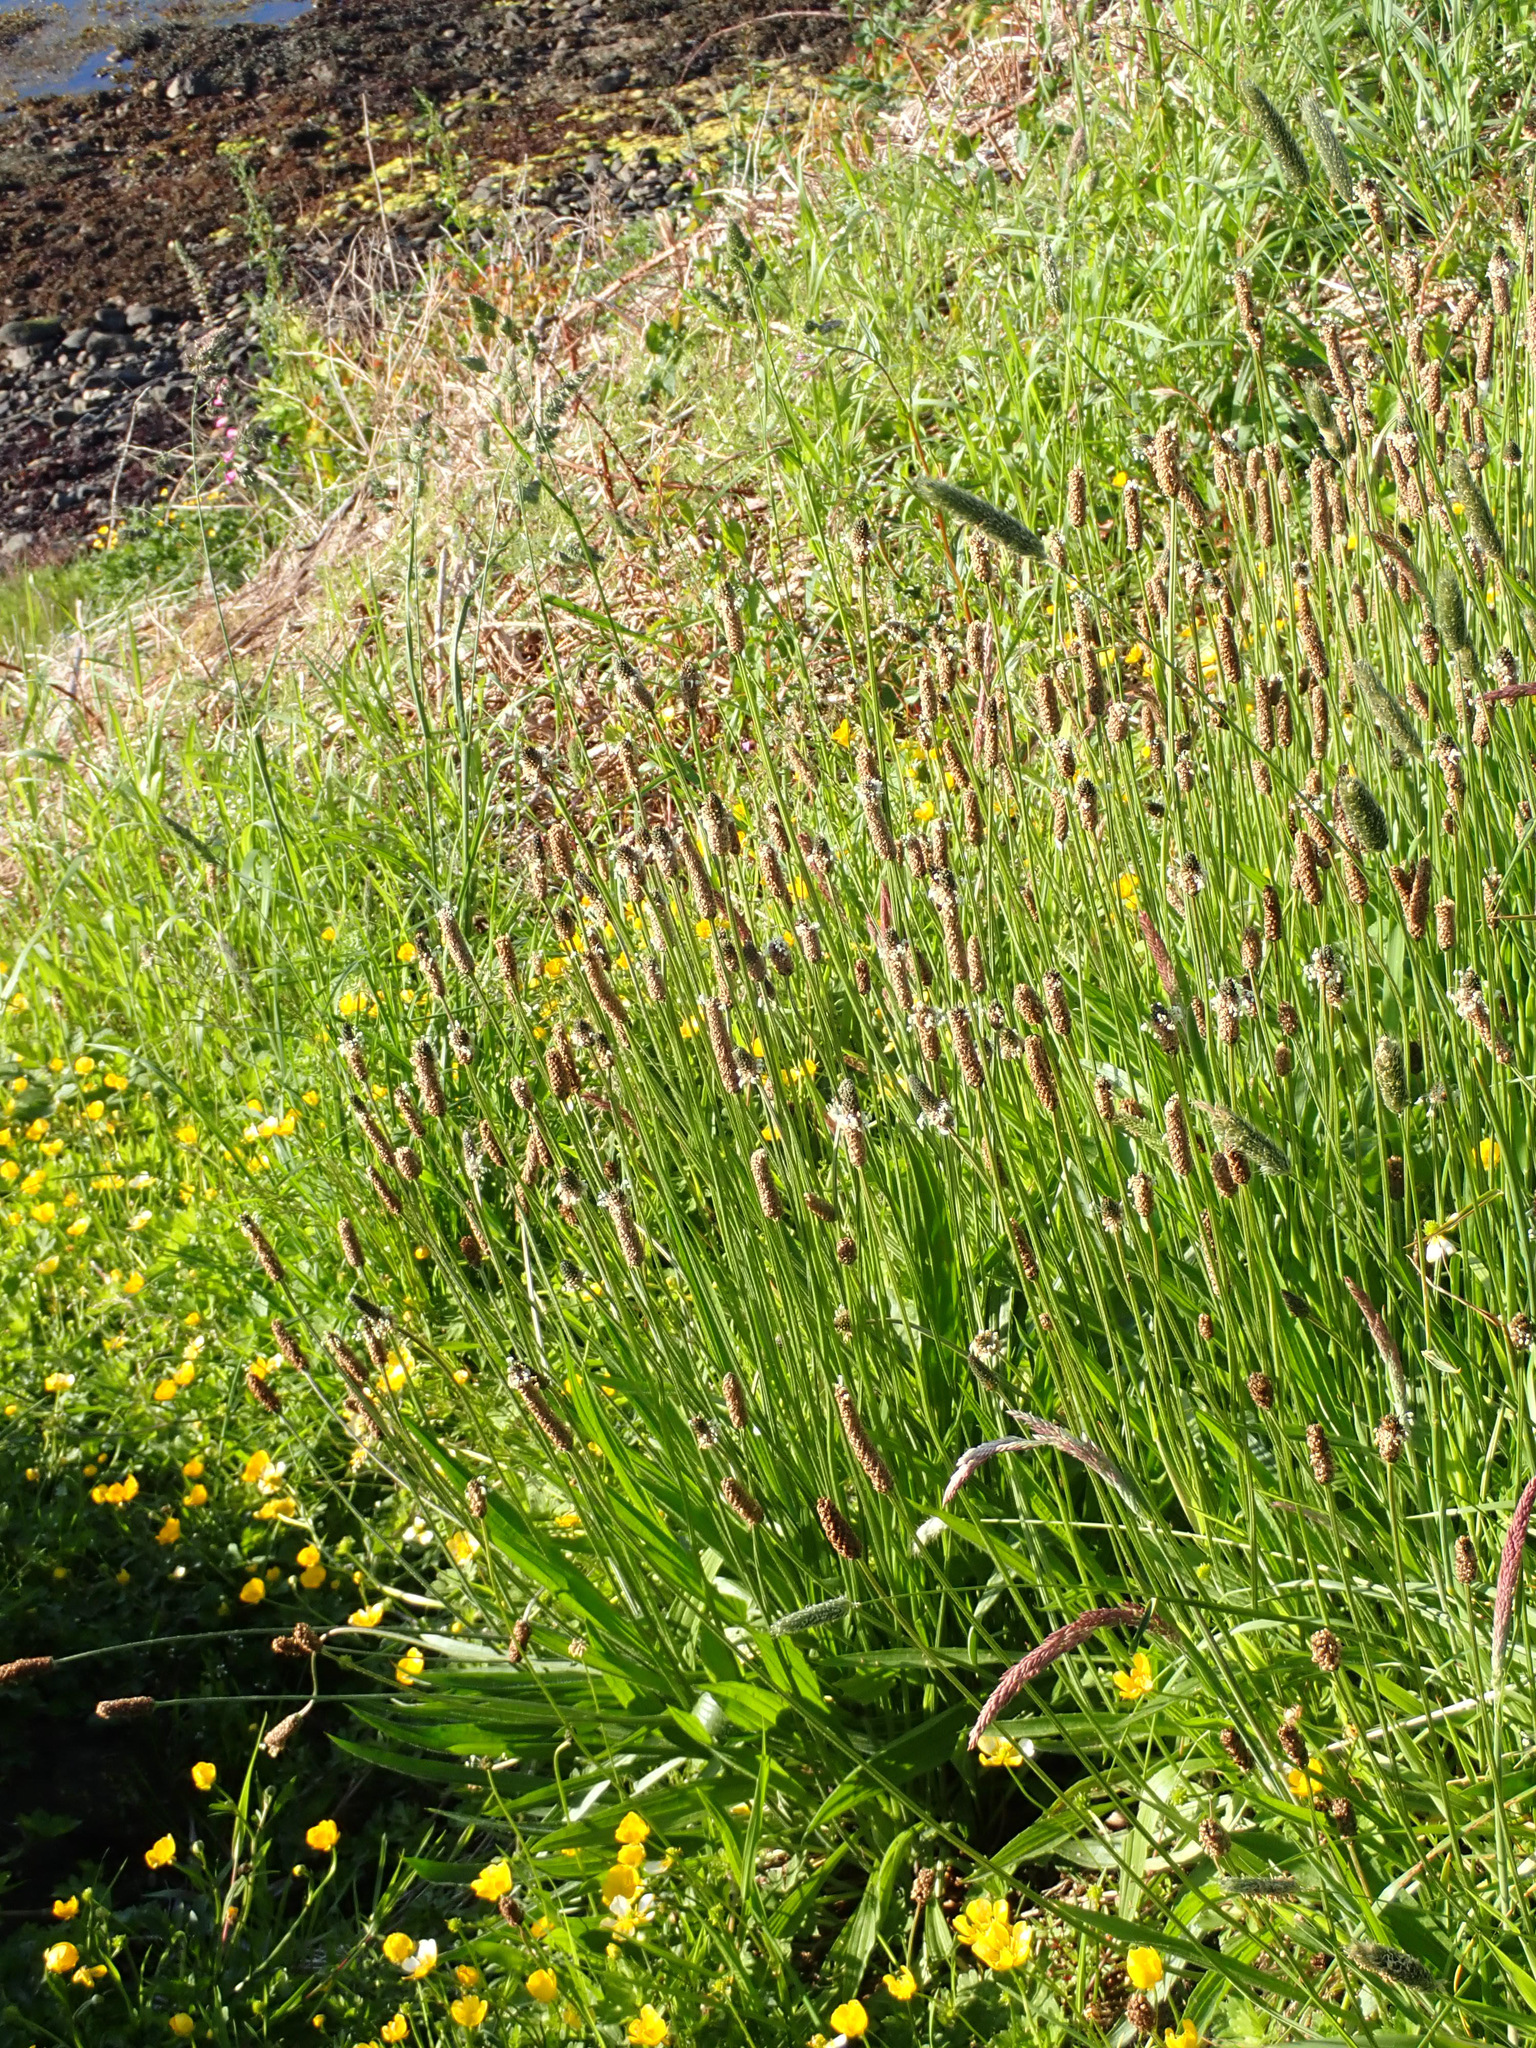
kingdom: Plantae
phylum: Tracheophyta
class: Magnoliopsida
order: Lamiales
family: Plantaginaceae
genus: Plantago
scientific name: Plantago lanceolata
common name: Ribwort plantain
